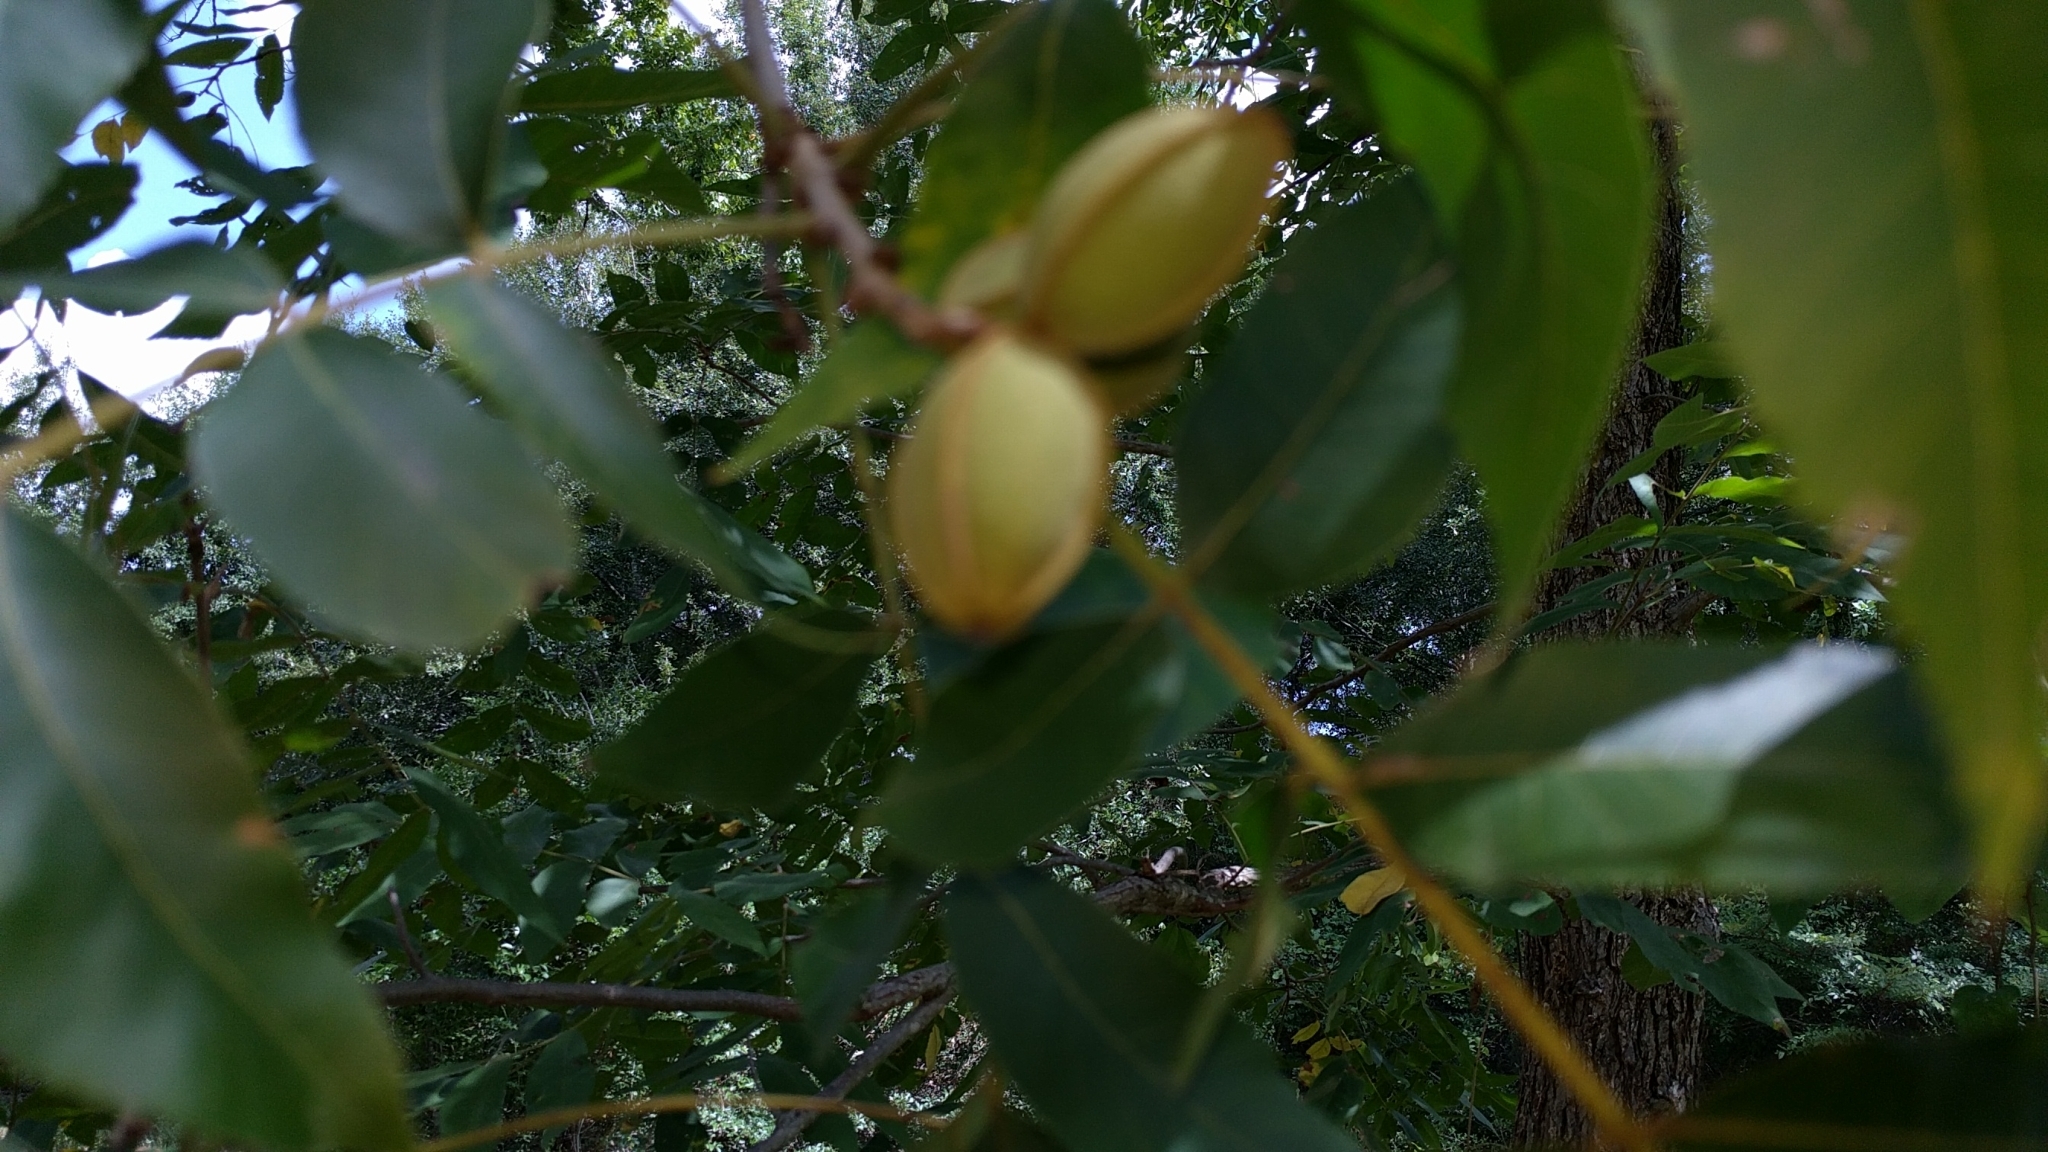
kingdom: Plantae
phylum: Tracheophyta
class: Magnoliopsida
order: Fagales
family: Juglandaceae
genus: Carya
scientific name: Carya illinoinensis
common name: Pecan
